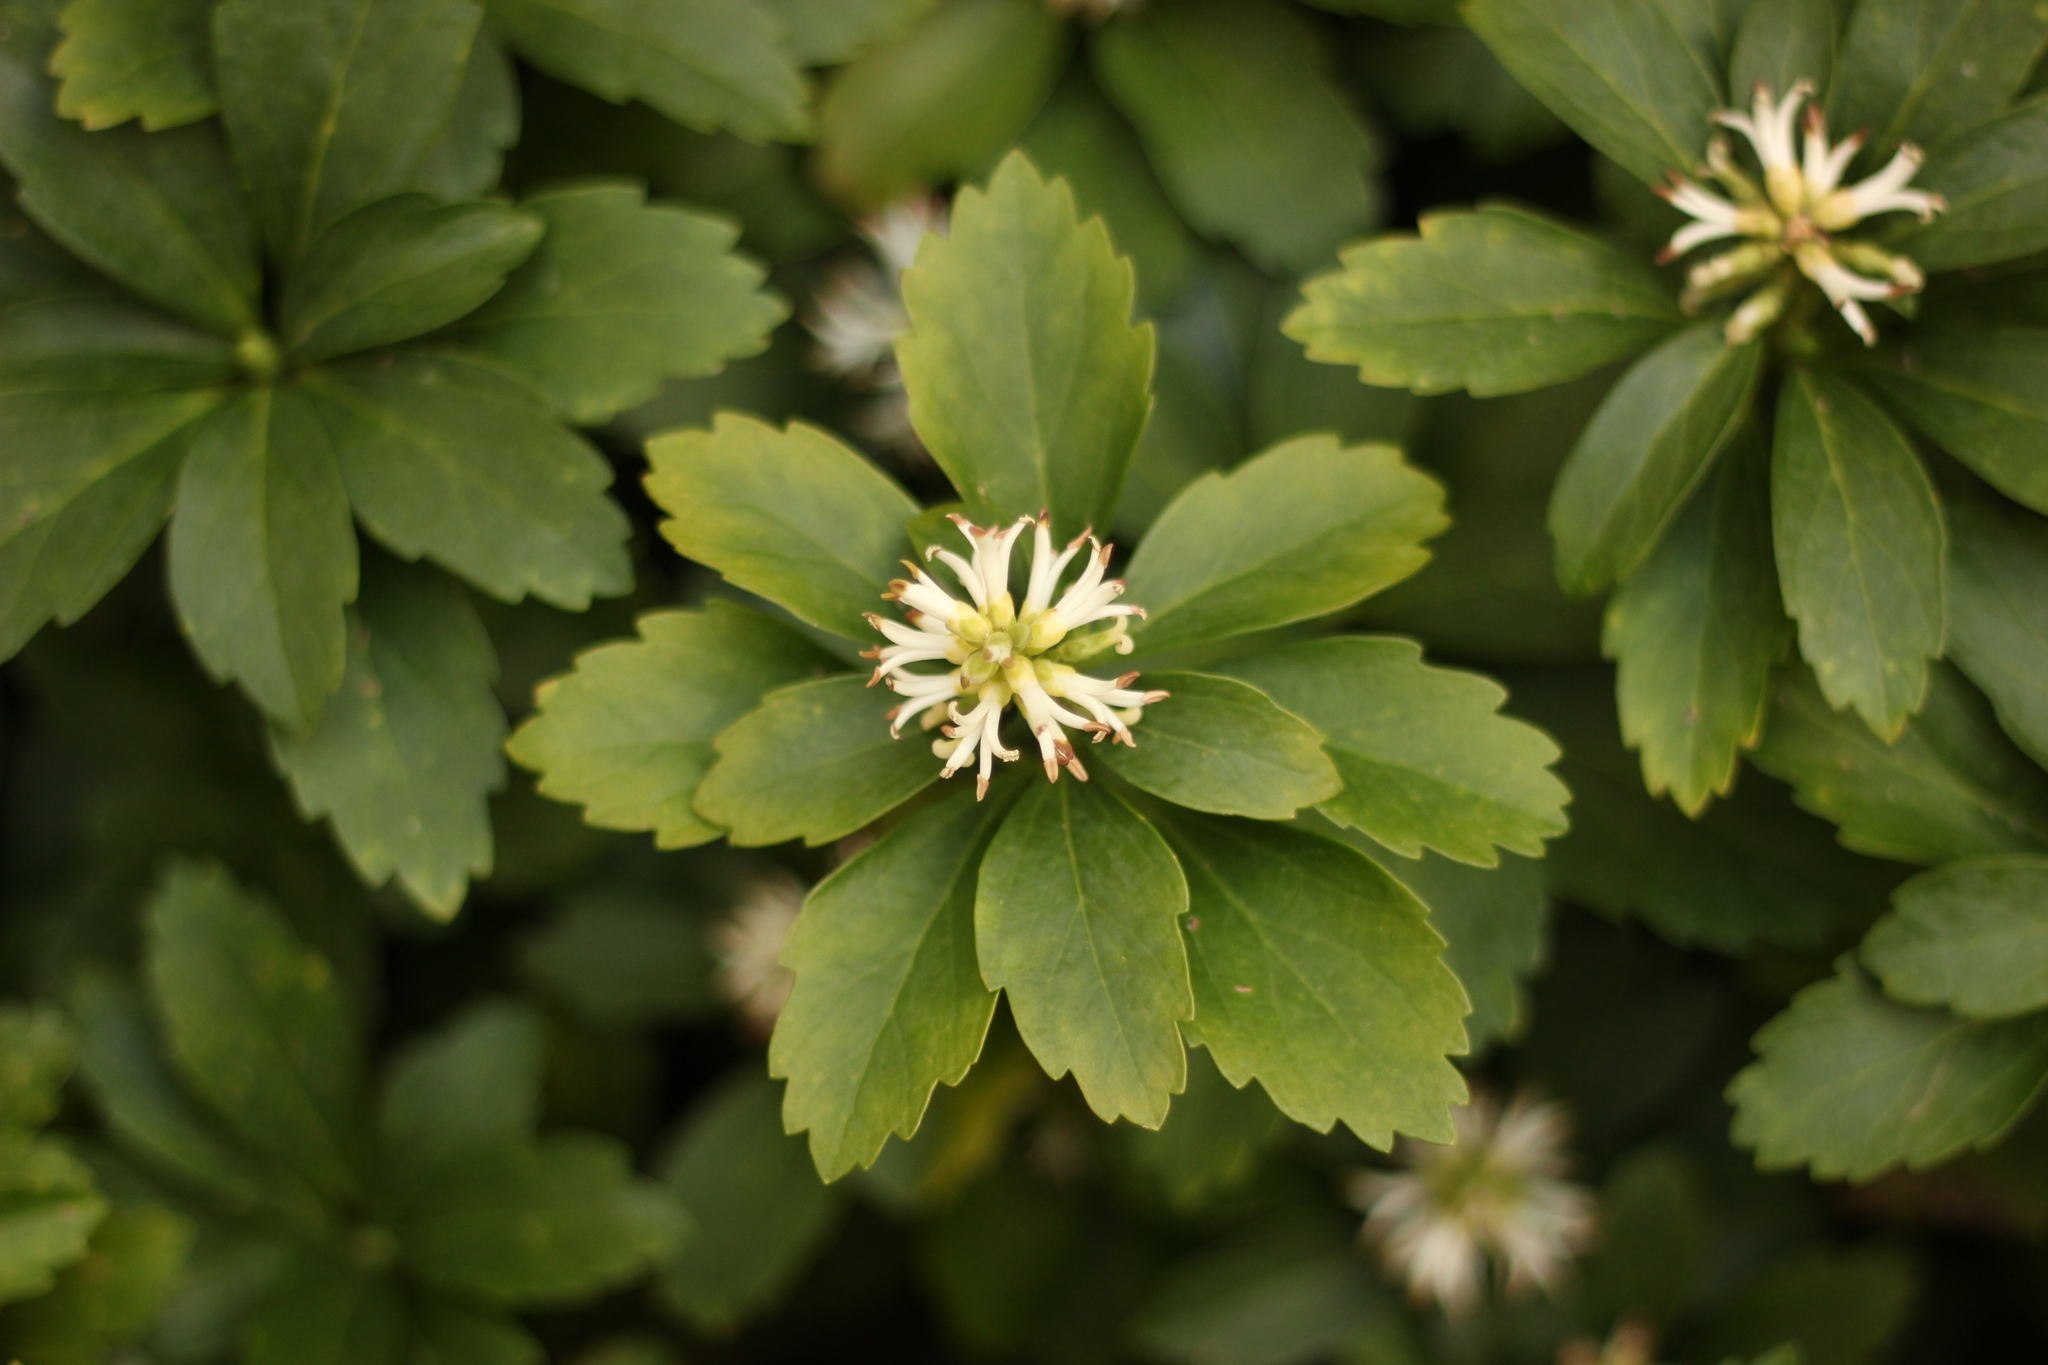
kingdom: Plantae
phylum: Tracheophyta
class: Magnoliopsida
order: Buxales
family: Buxaceae
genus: Pachysandra
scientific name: Pachysandra terminalis
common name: Japanese pachysandra
